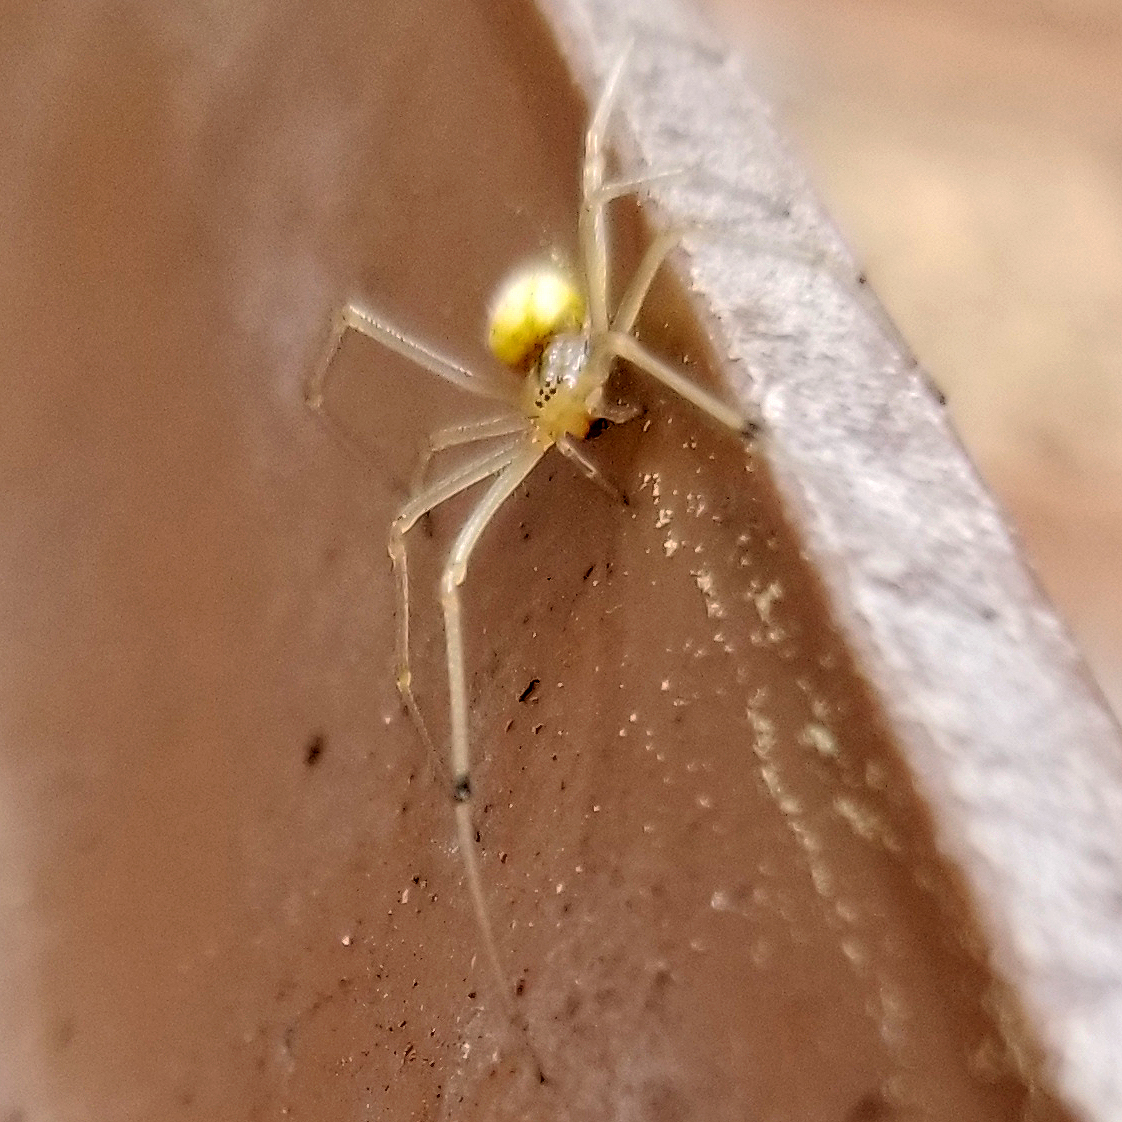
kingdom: Animalia
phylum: Arthropoda
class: Arachnida
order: Araneae
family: Theridiidae
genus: Enoplognatha
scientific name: Enoplognatha ovata
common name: Common candy-striped spider
